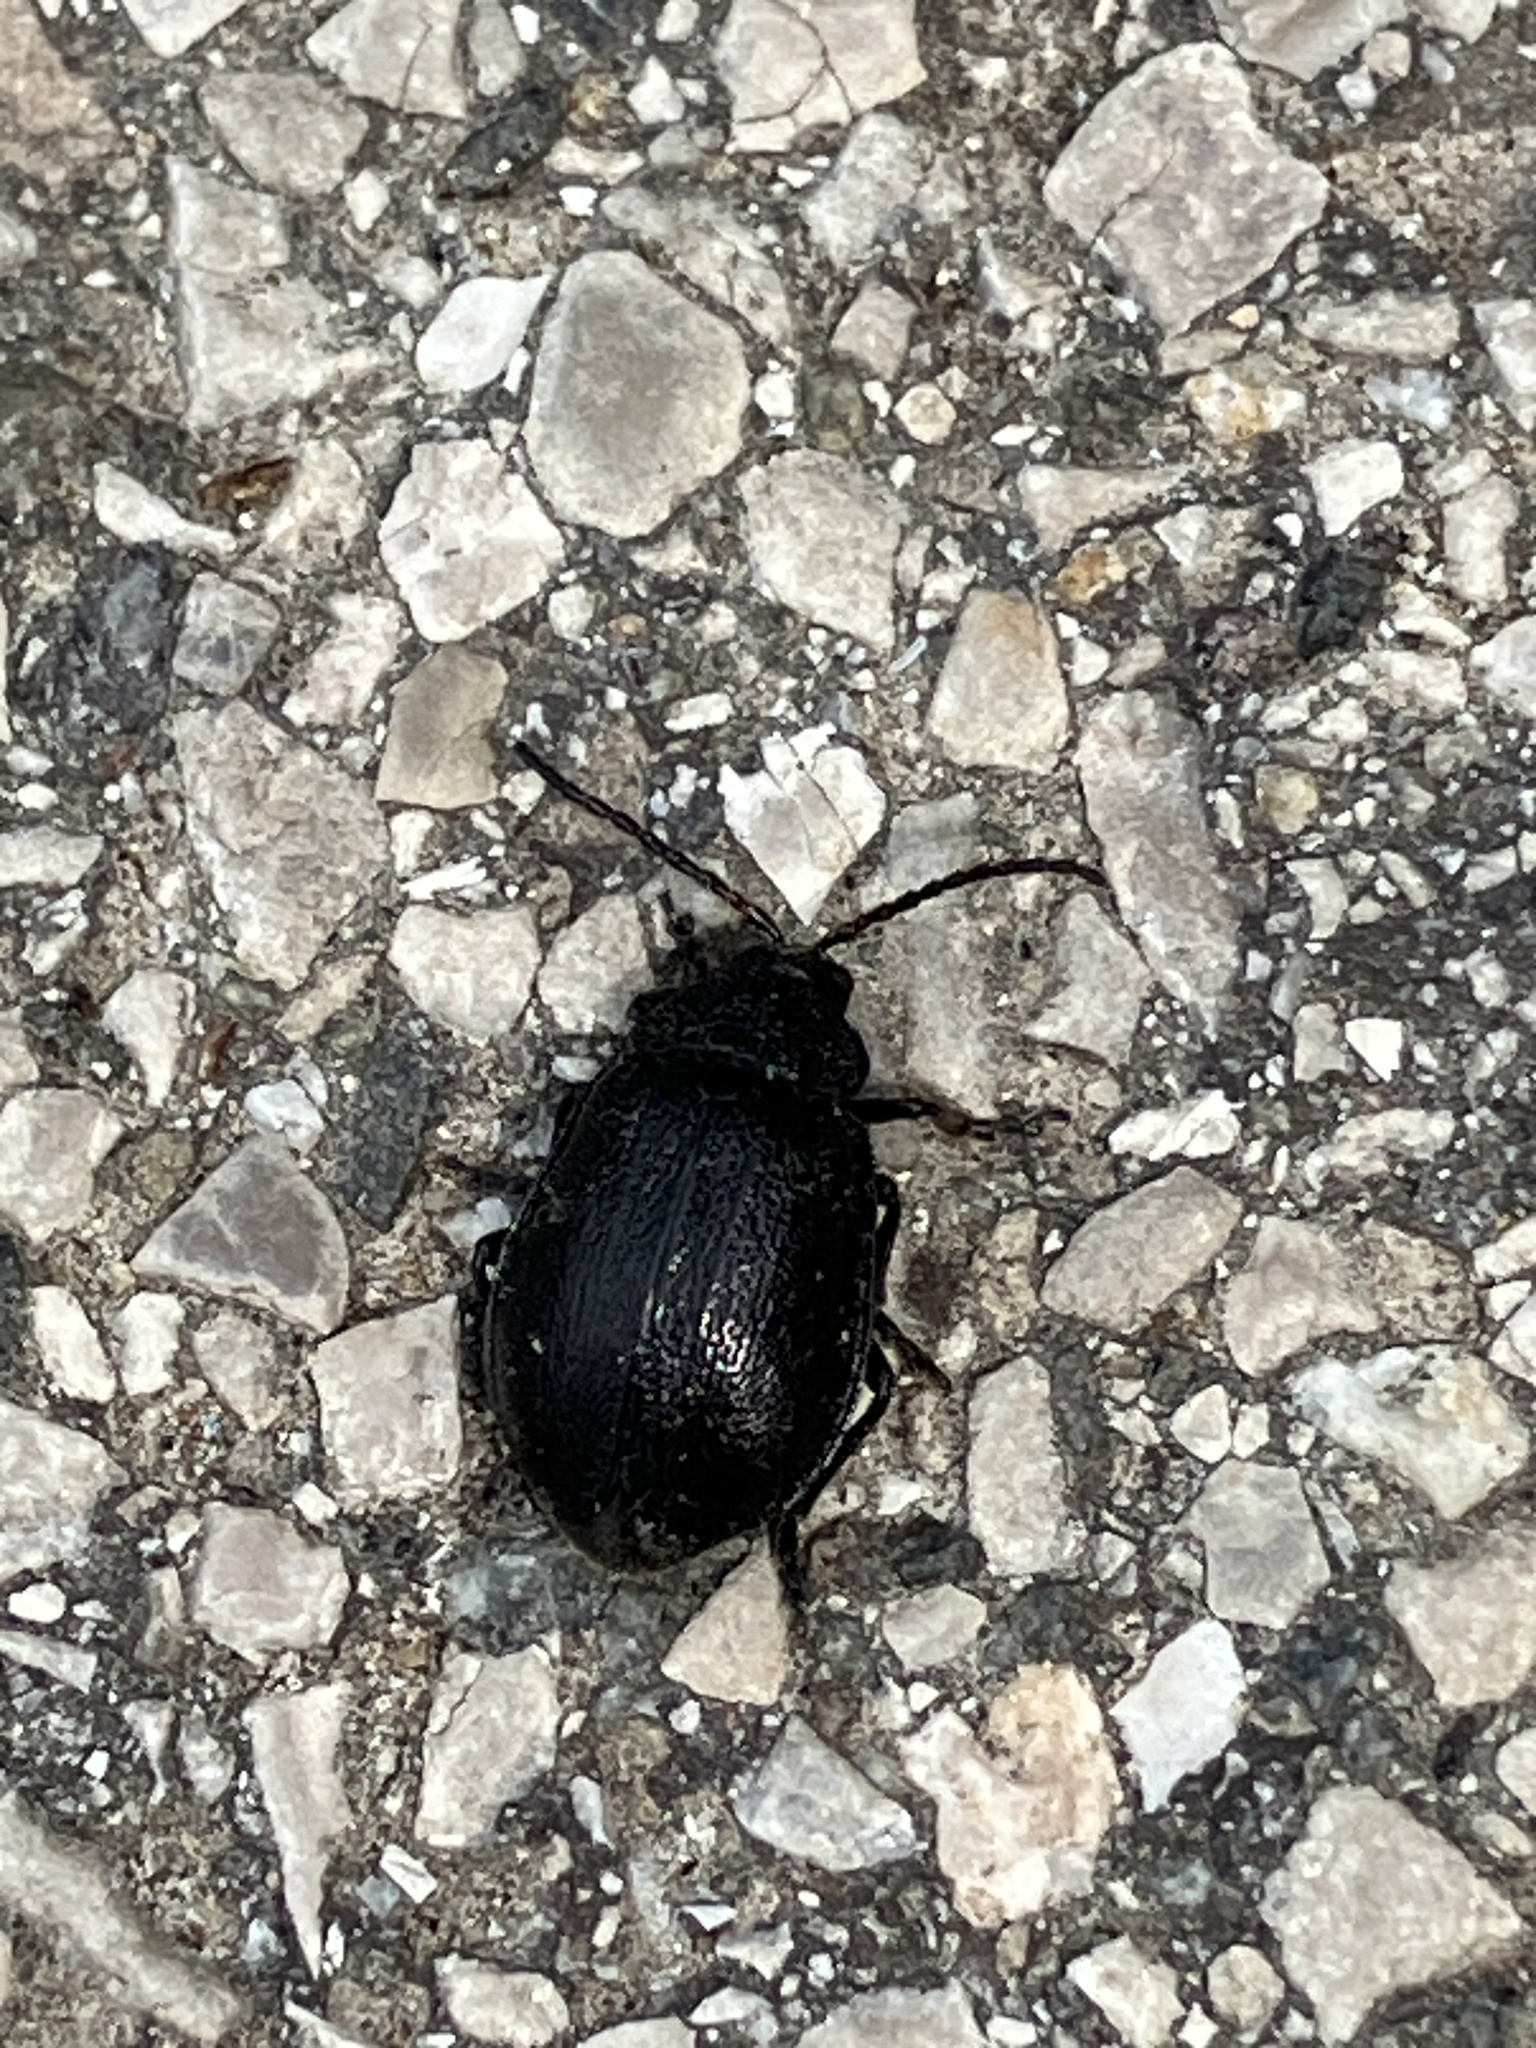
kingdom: Animalia
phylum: Arthropoda
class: Insecta
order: Coleoptera
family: Chrysomelidae
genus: Galeruca
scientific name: Galeruca tanaceti
